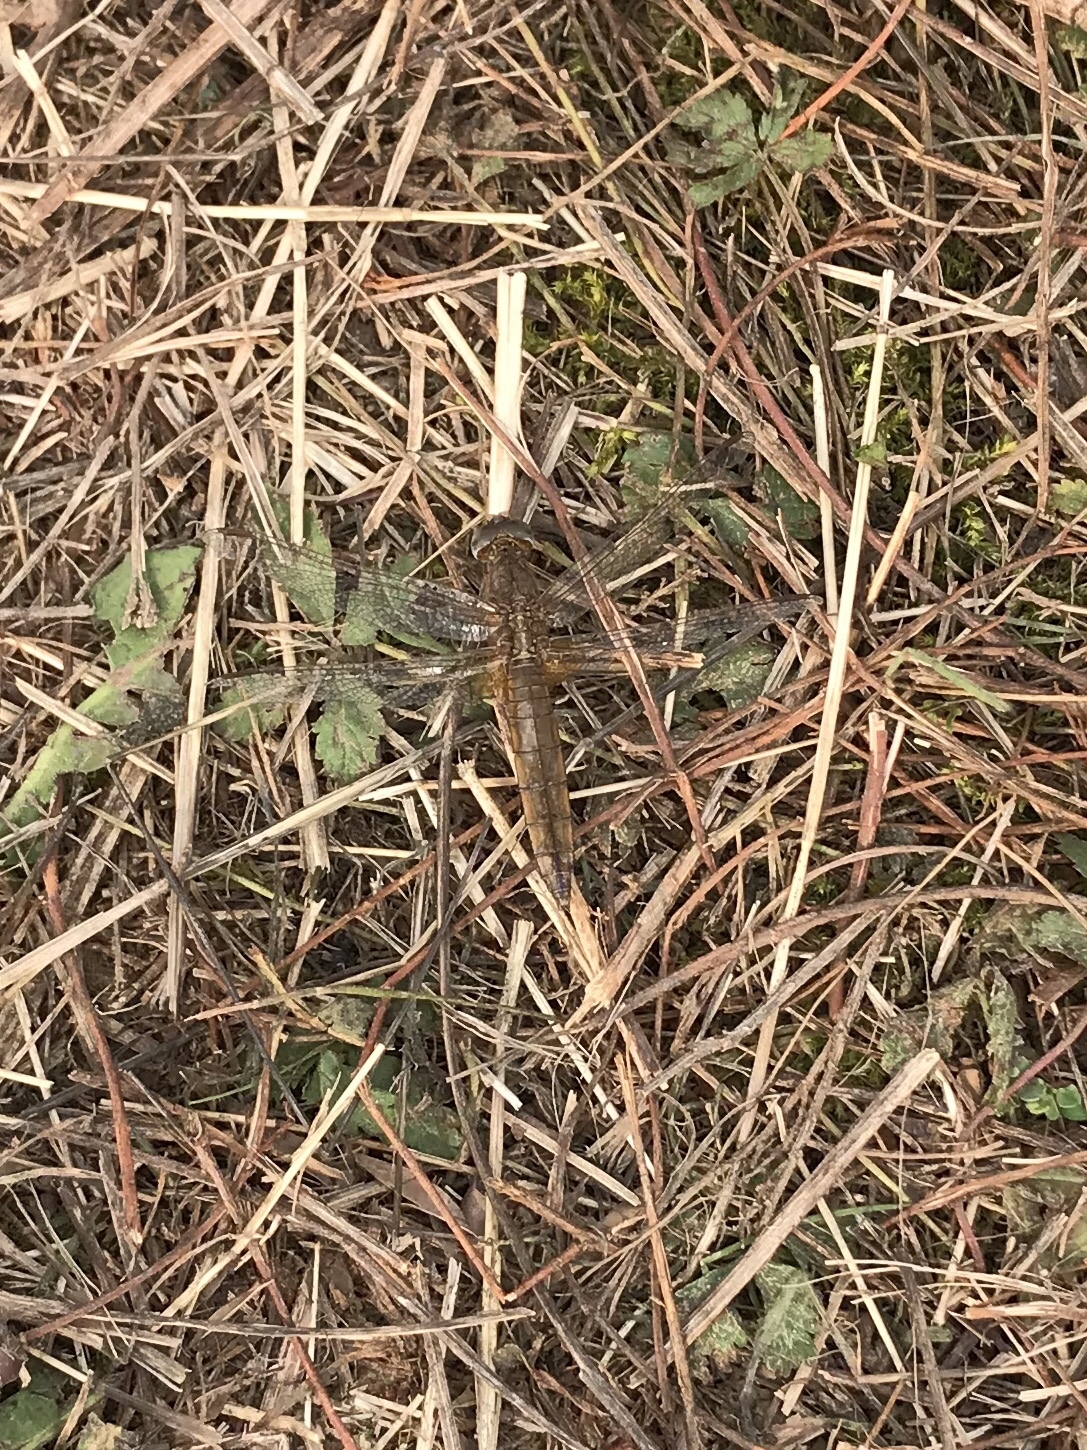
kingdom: Animalia
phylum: Arthropoda
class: Insecta
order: Odonata
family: Libellulidae
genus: Crocothemis
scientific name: Crocothemis erythraea
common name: Scarlet dragonfly
